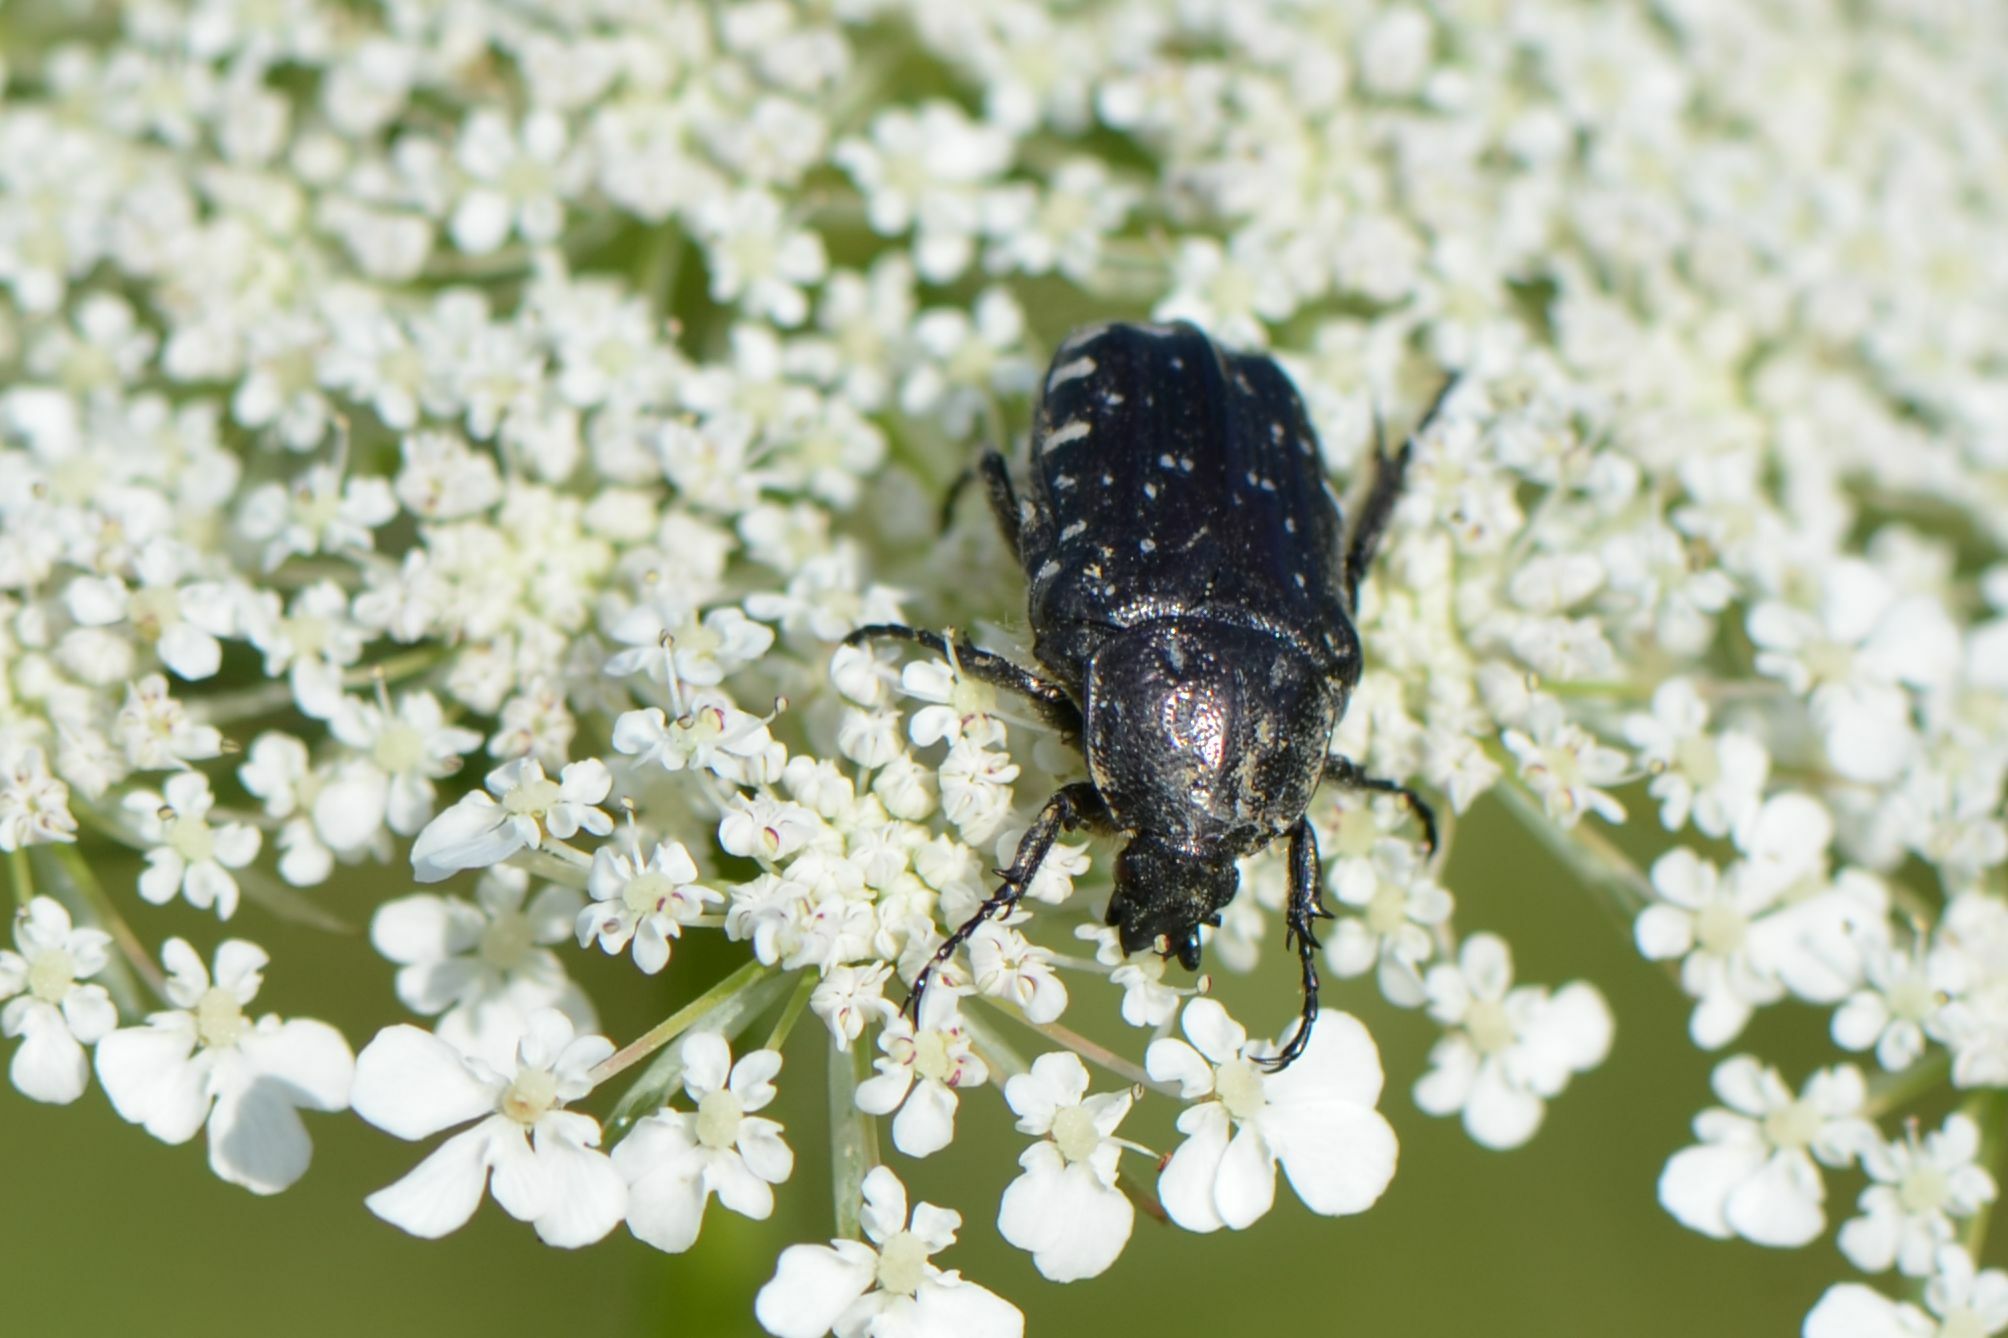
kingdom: Animalia
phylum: Arthropoda
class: Insecta
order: Coleoptera
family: Scarabaeidae
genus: Oxythyrea
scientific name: Oxythyrea funesta
